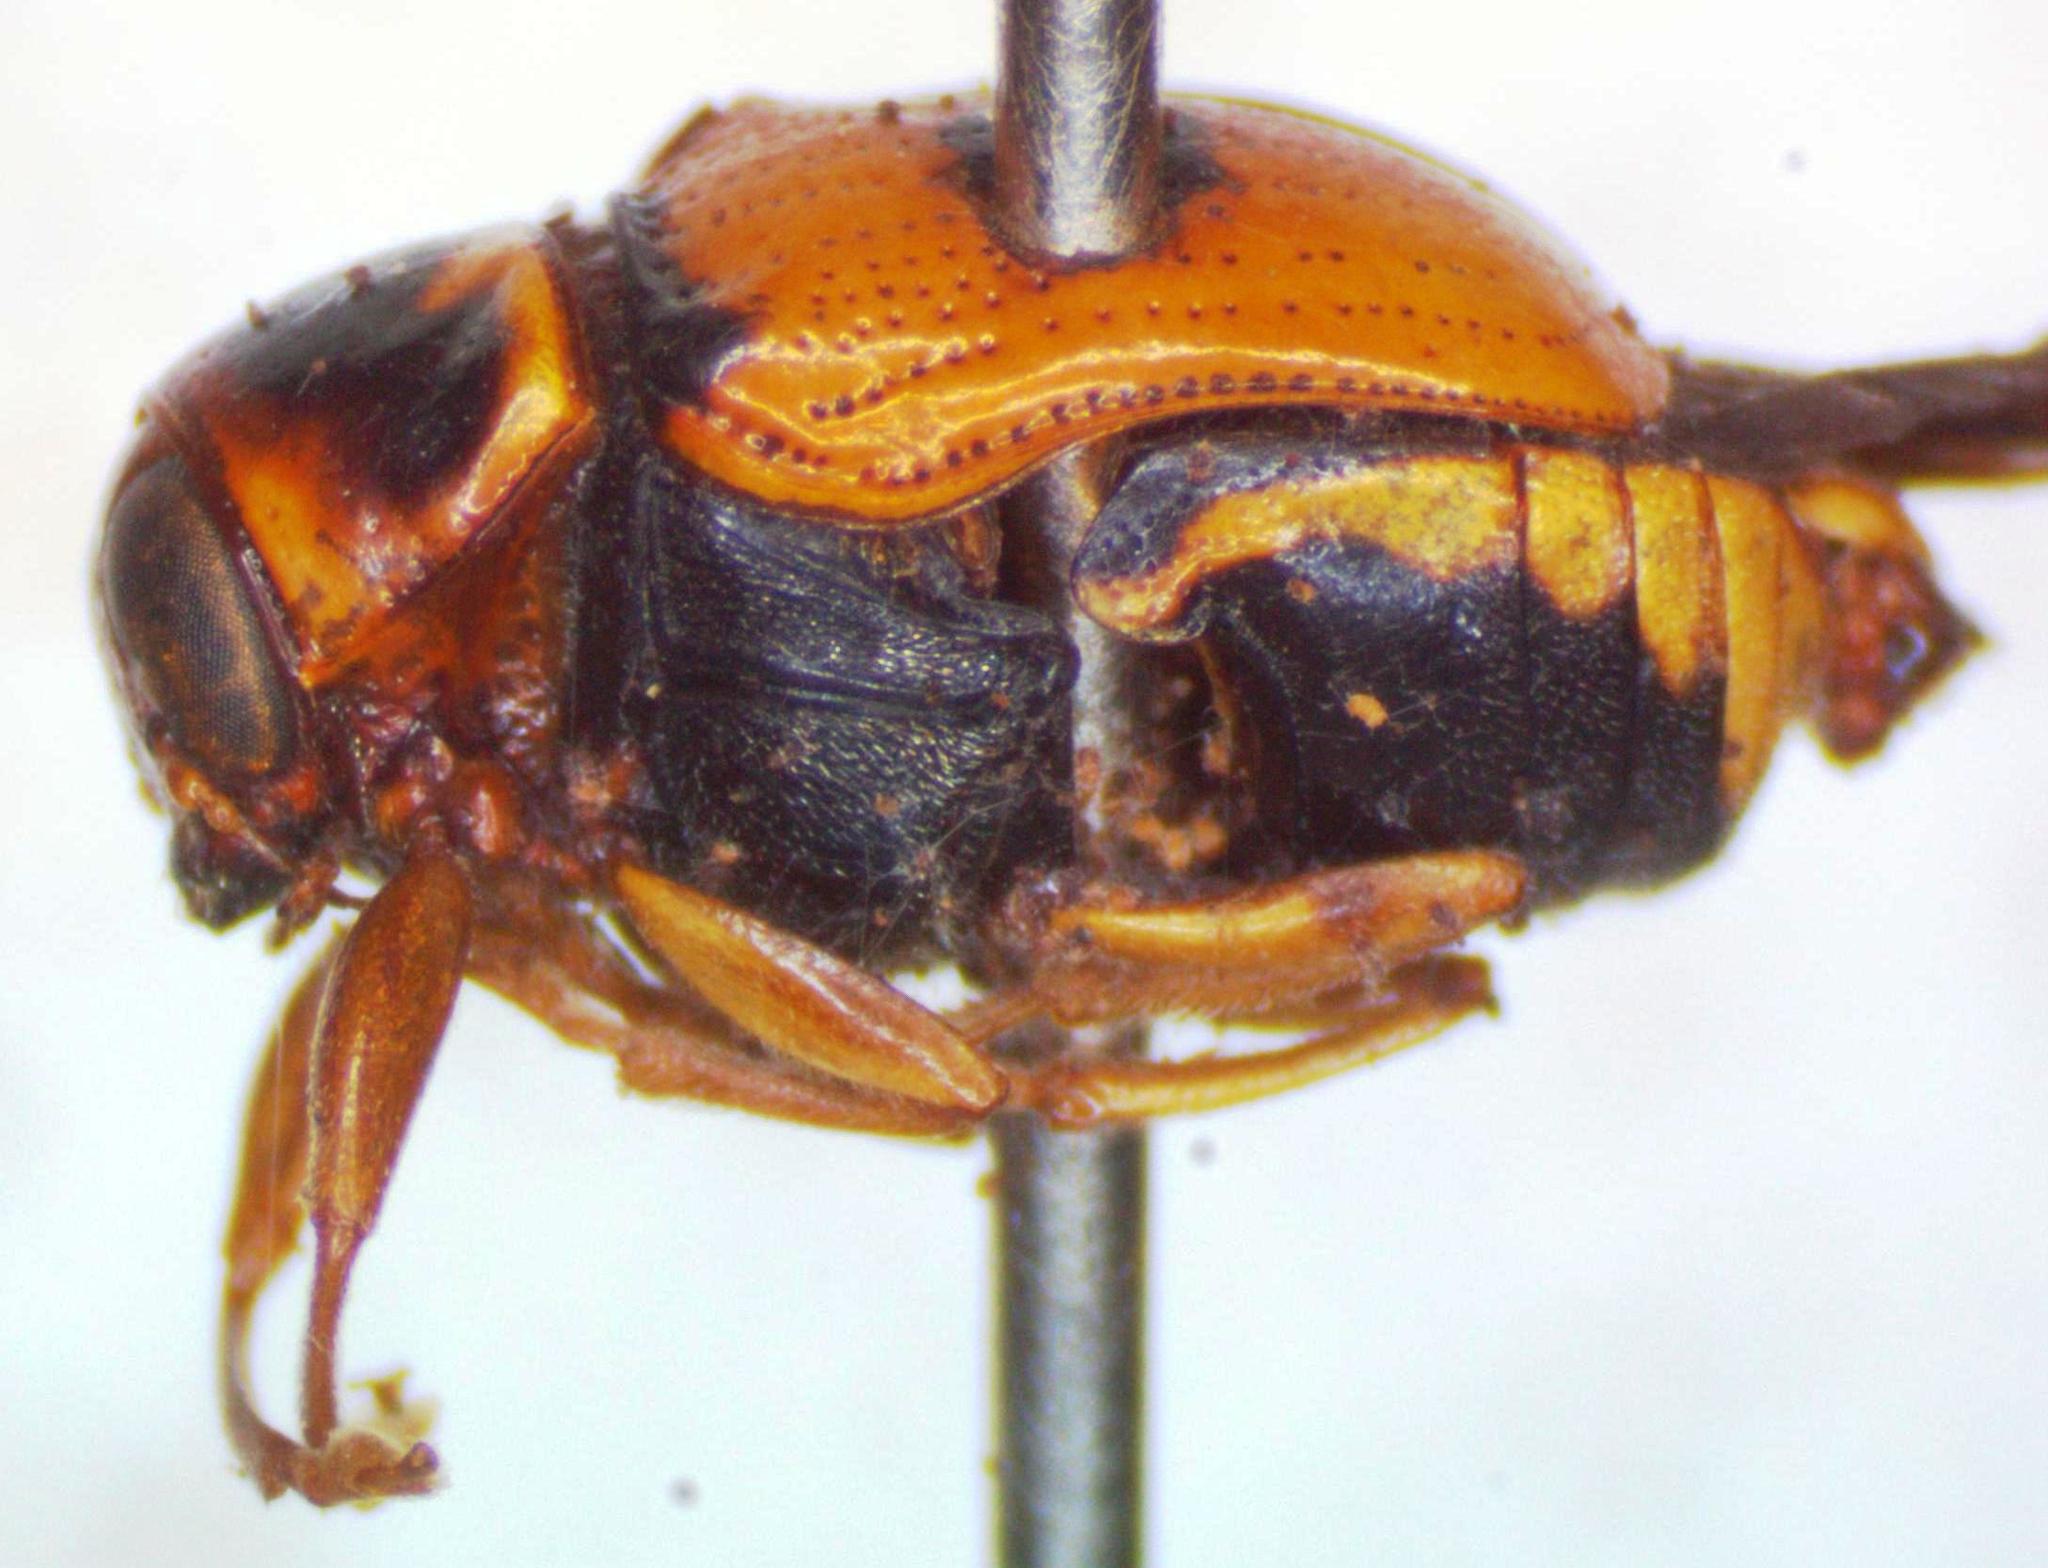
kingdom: Animalia
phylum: Arthropoda
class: Insecta
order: Coleoptera
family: Chrysomelidae
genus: Griburius
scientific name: Griburius
